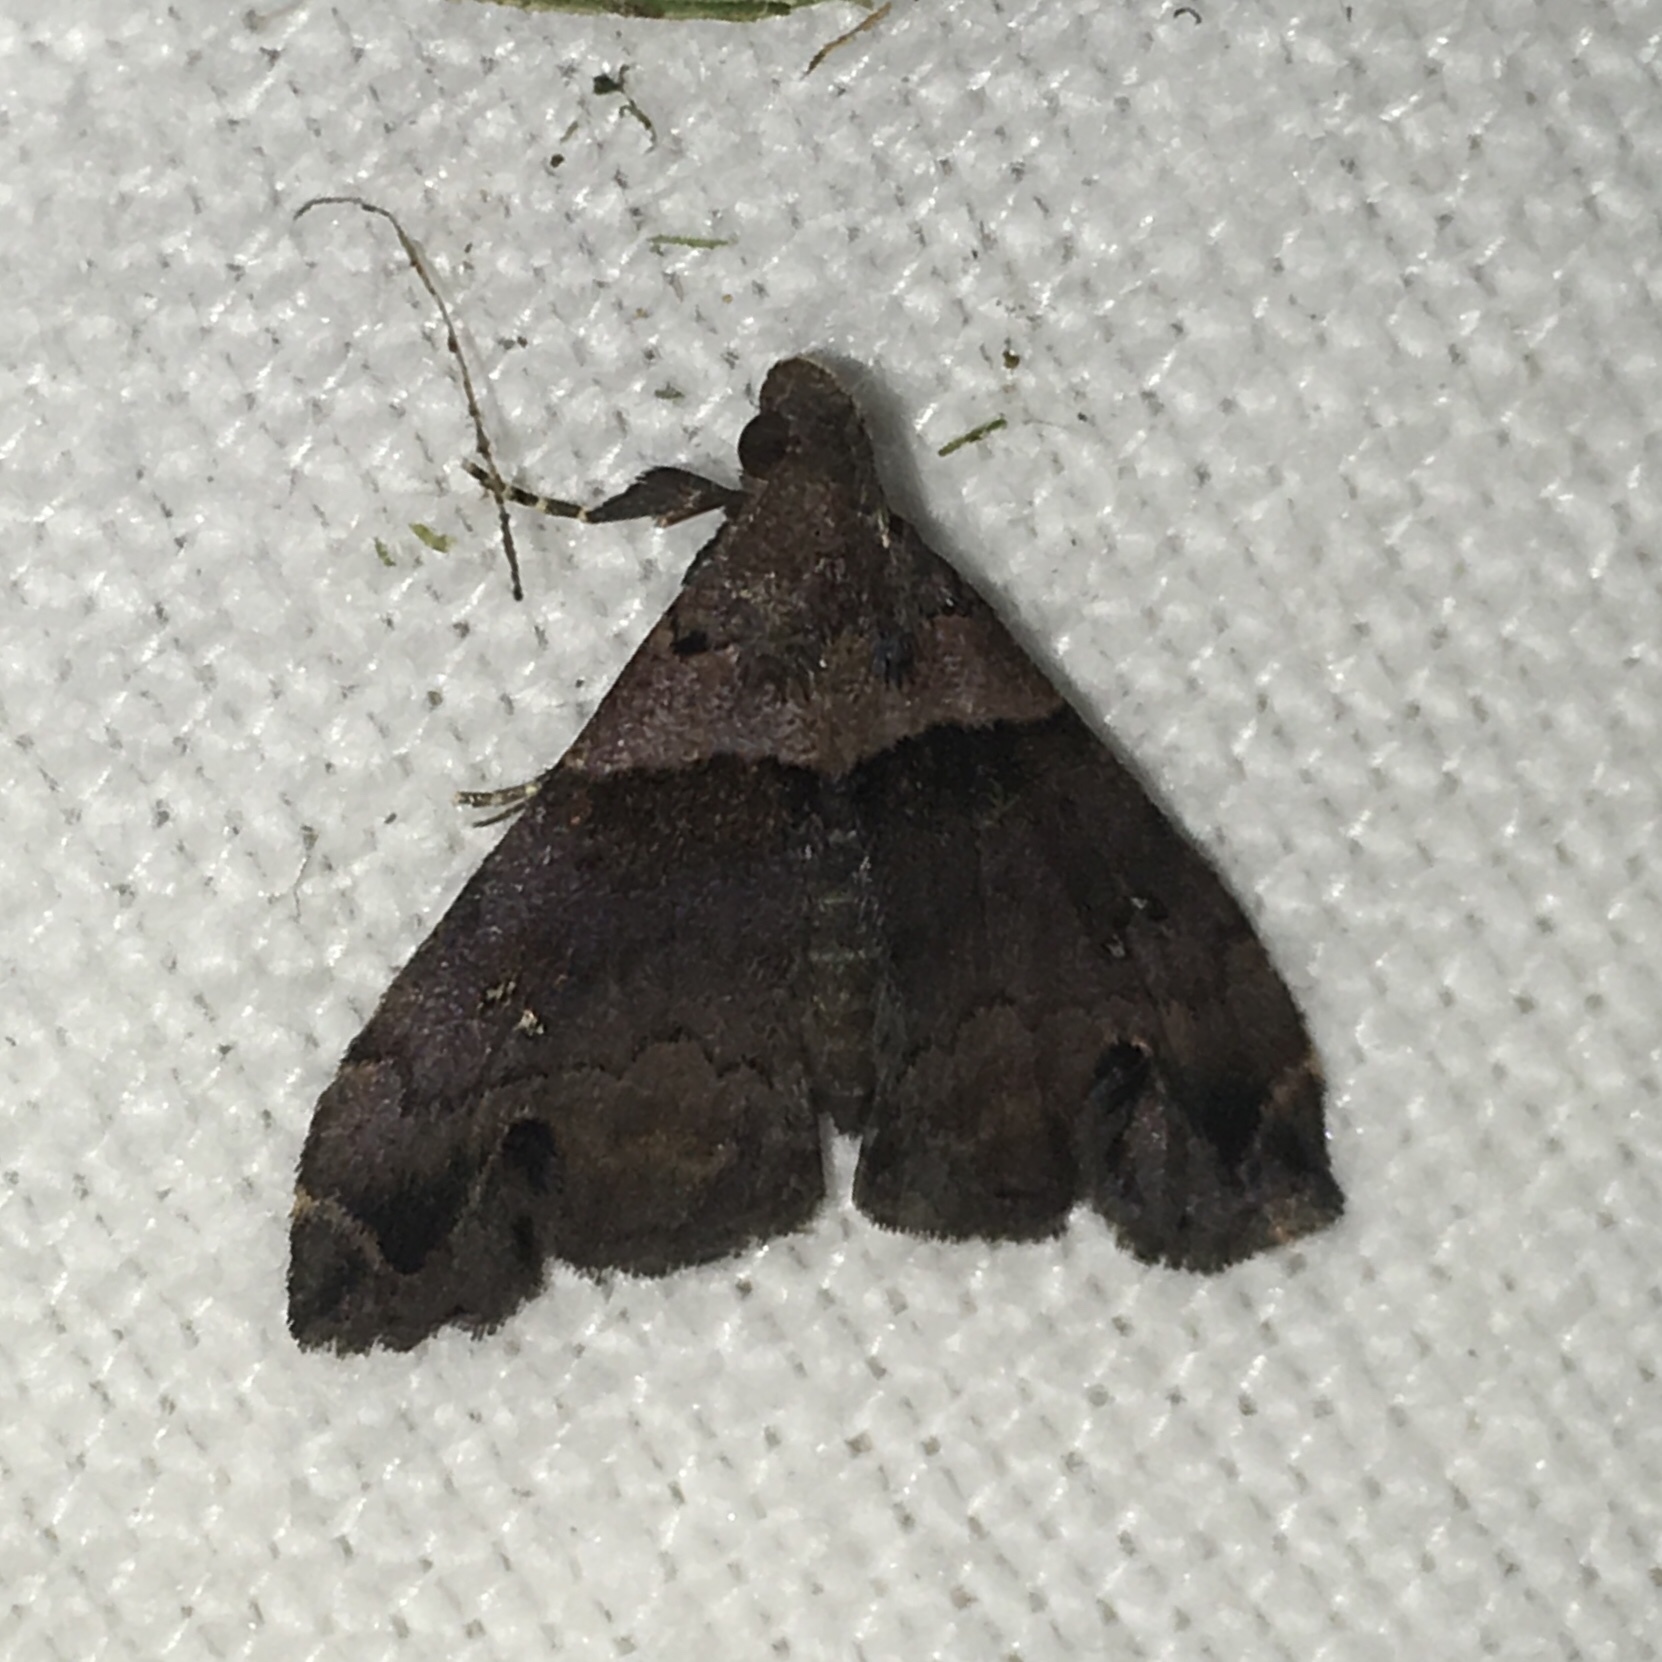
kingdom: Animalia
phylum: Arthropoda
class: Insecta
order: Lepidoptera
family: Erebidae
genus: Lascoria
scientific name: Lascoria ambigualis
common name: Ambiguous moth
